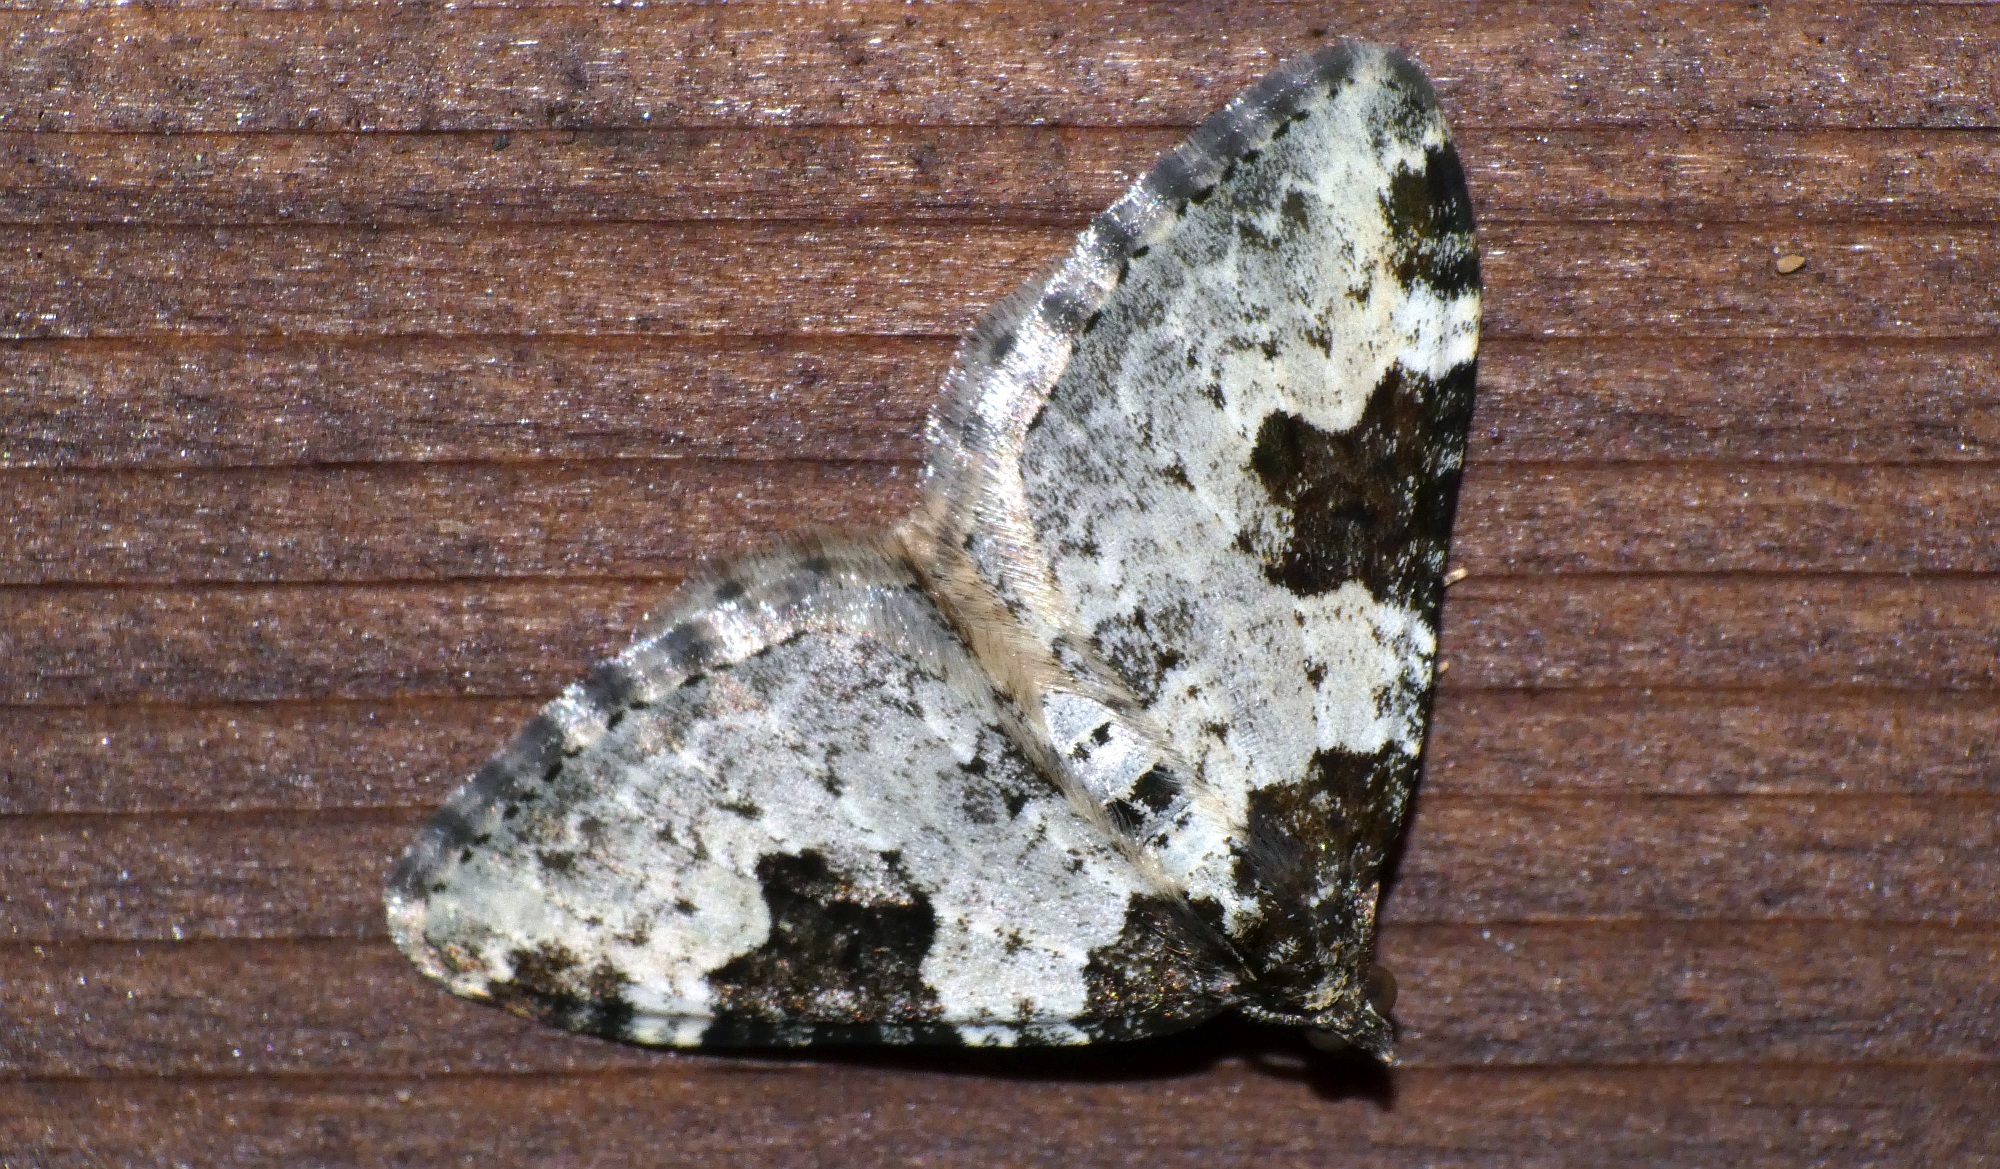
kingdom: Animalia
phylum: Arthropoda
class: Insecta
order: Lepidoptera
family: Geometridae
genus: Xanthorhoe
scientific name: Xanthorhoe fluctuata
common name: Garden carpet
